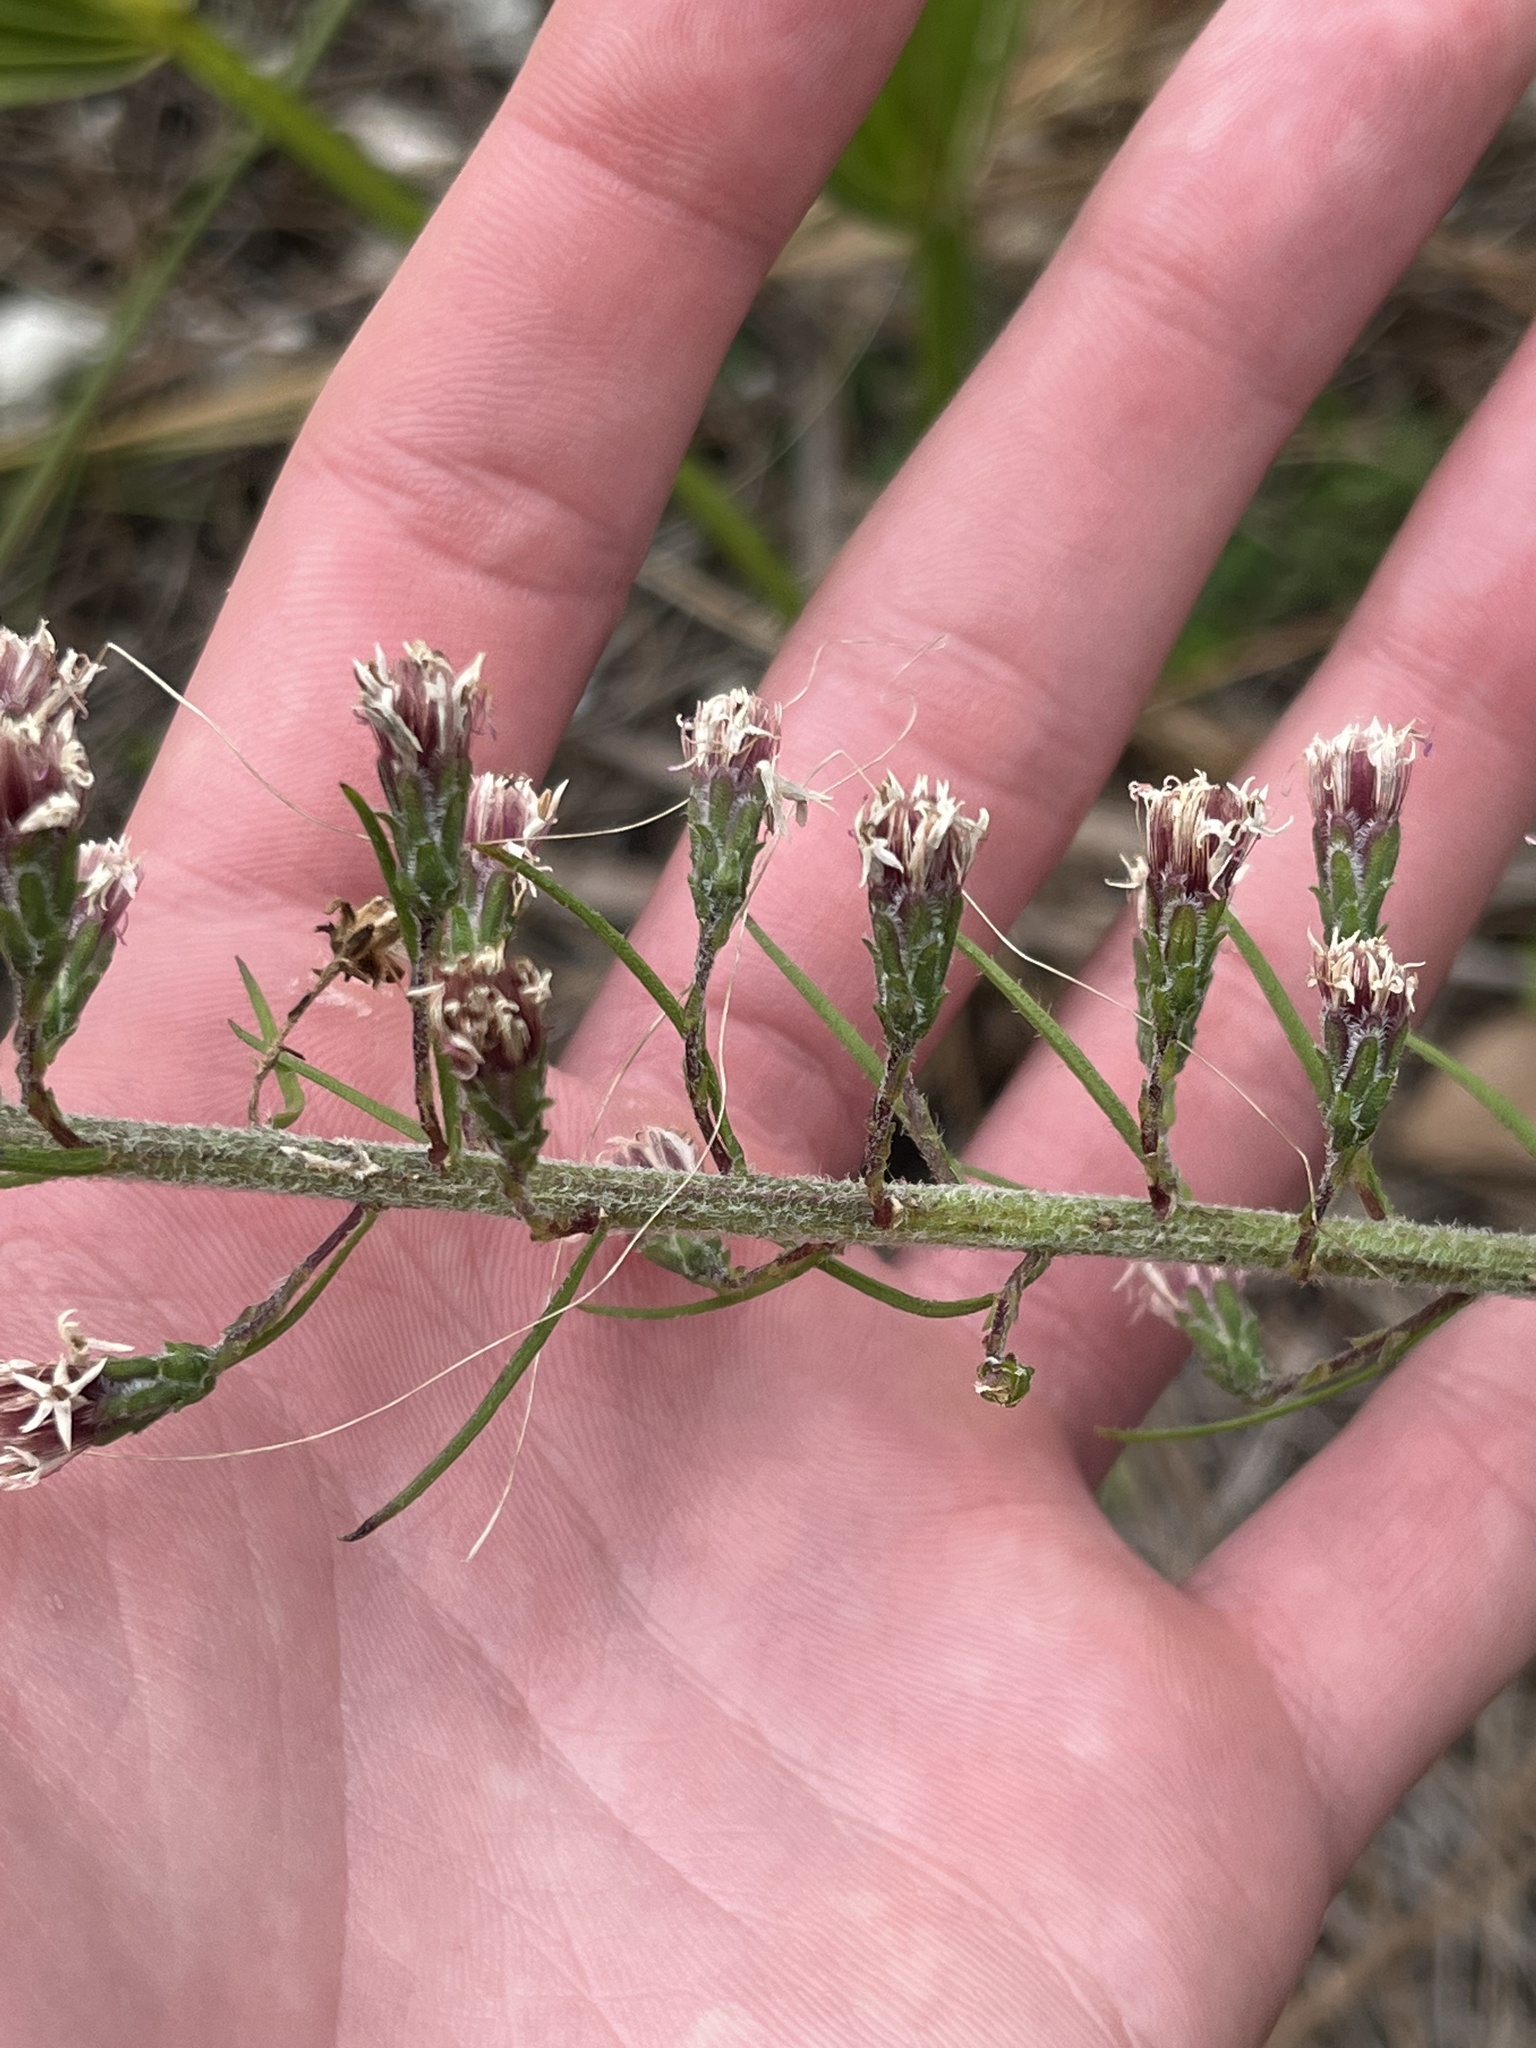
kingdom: Plantae
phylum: Tracheophyta
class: Magnoliopsida
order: Asterales
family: Asteraceae
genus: Liatris
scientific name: Liatris gracilis
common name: Slender gayfeather
